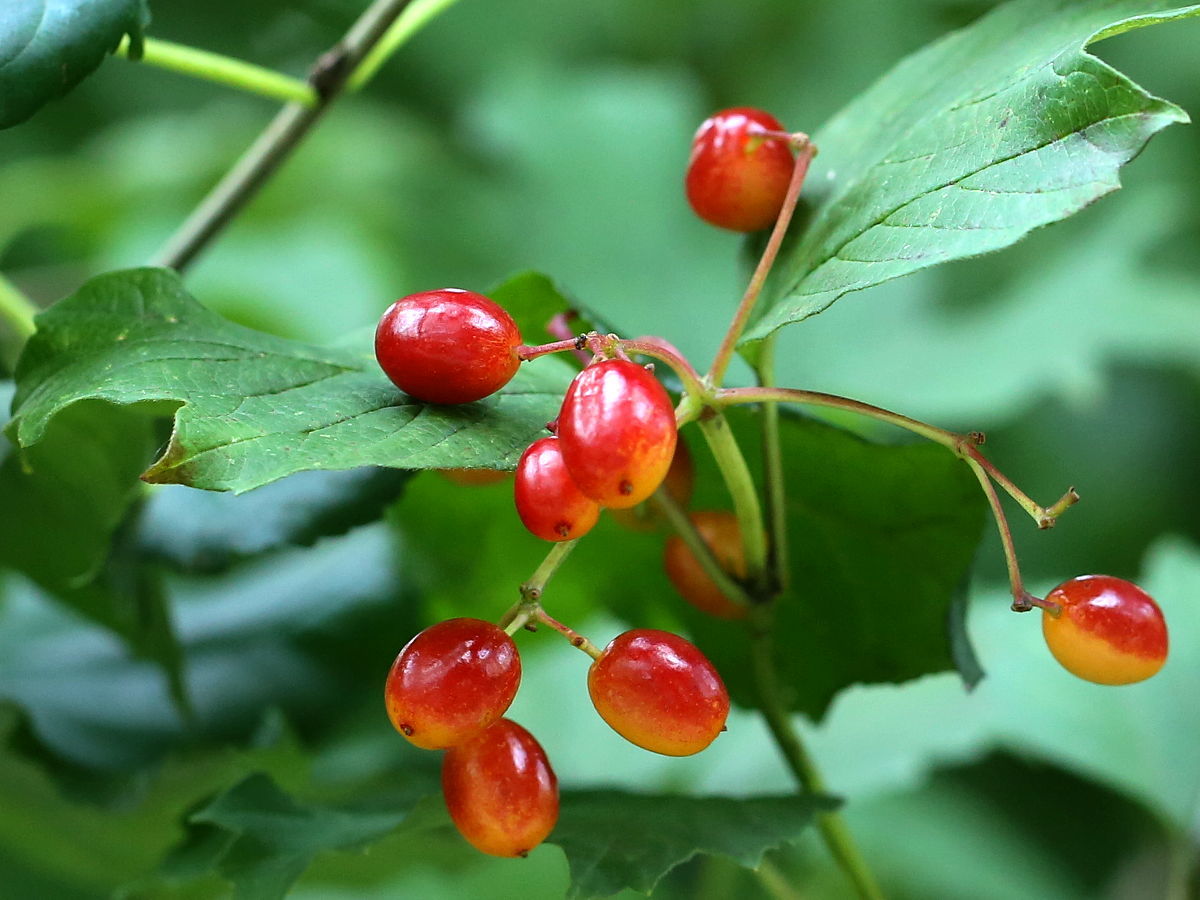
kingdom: Plantae
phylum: Tracheophyta
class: Magnoliopsida
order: Dipsacales
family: Viburnaceae
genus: Viburnum
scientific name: Viburnum opulus
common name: Guelder-rose
